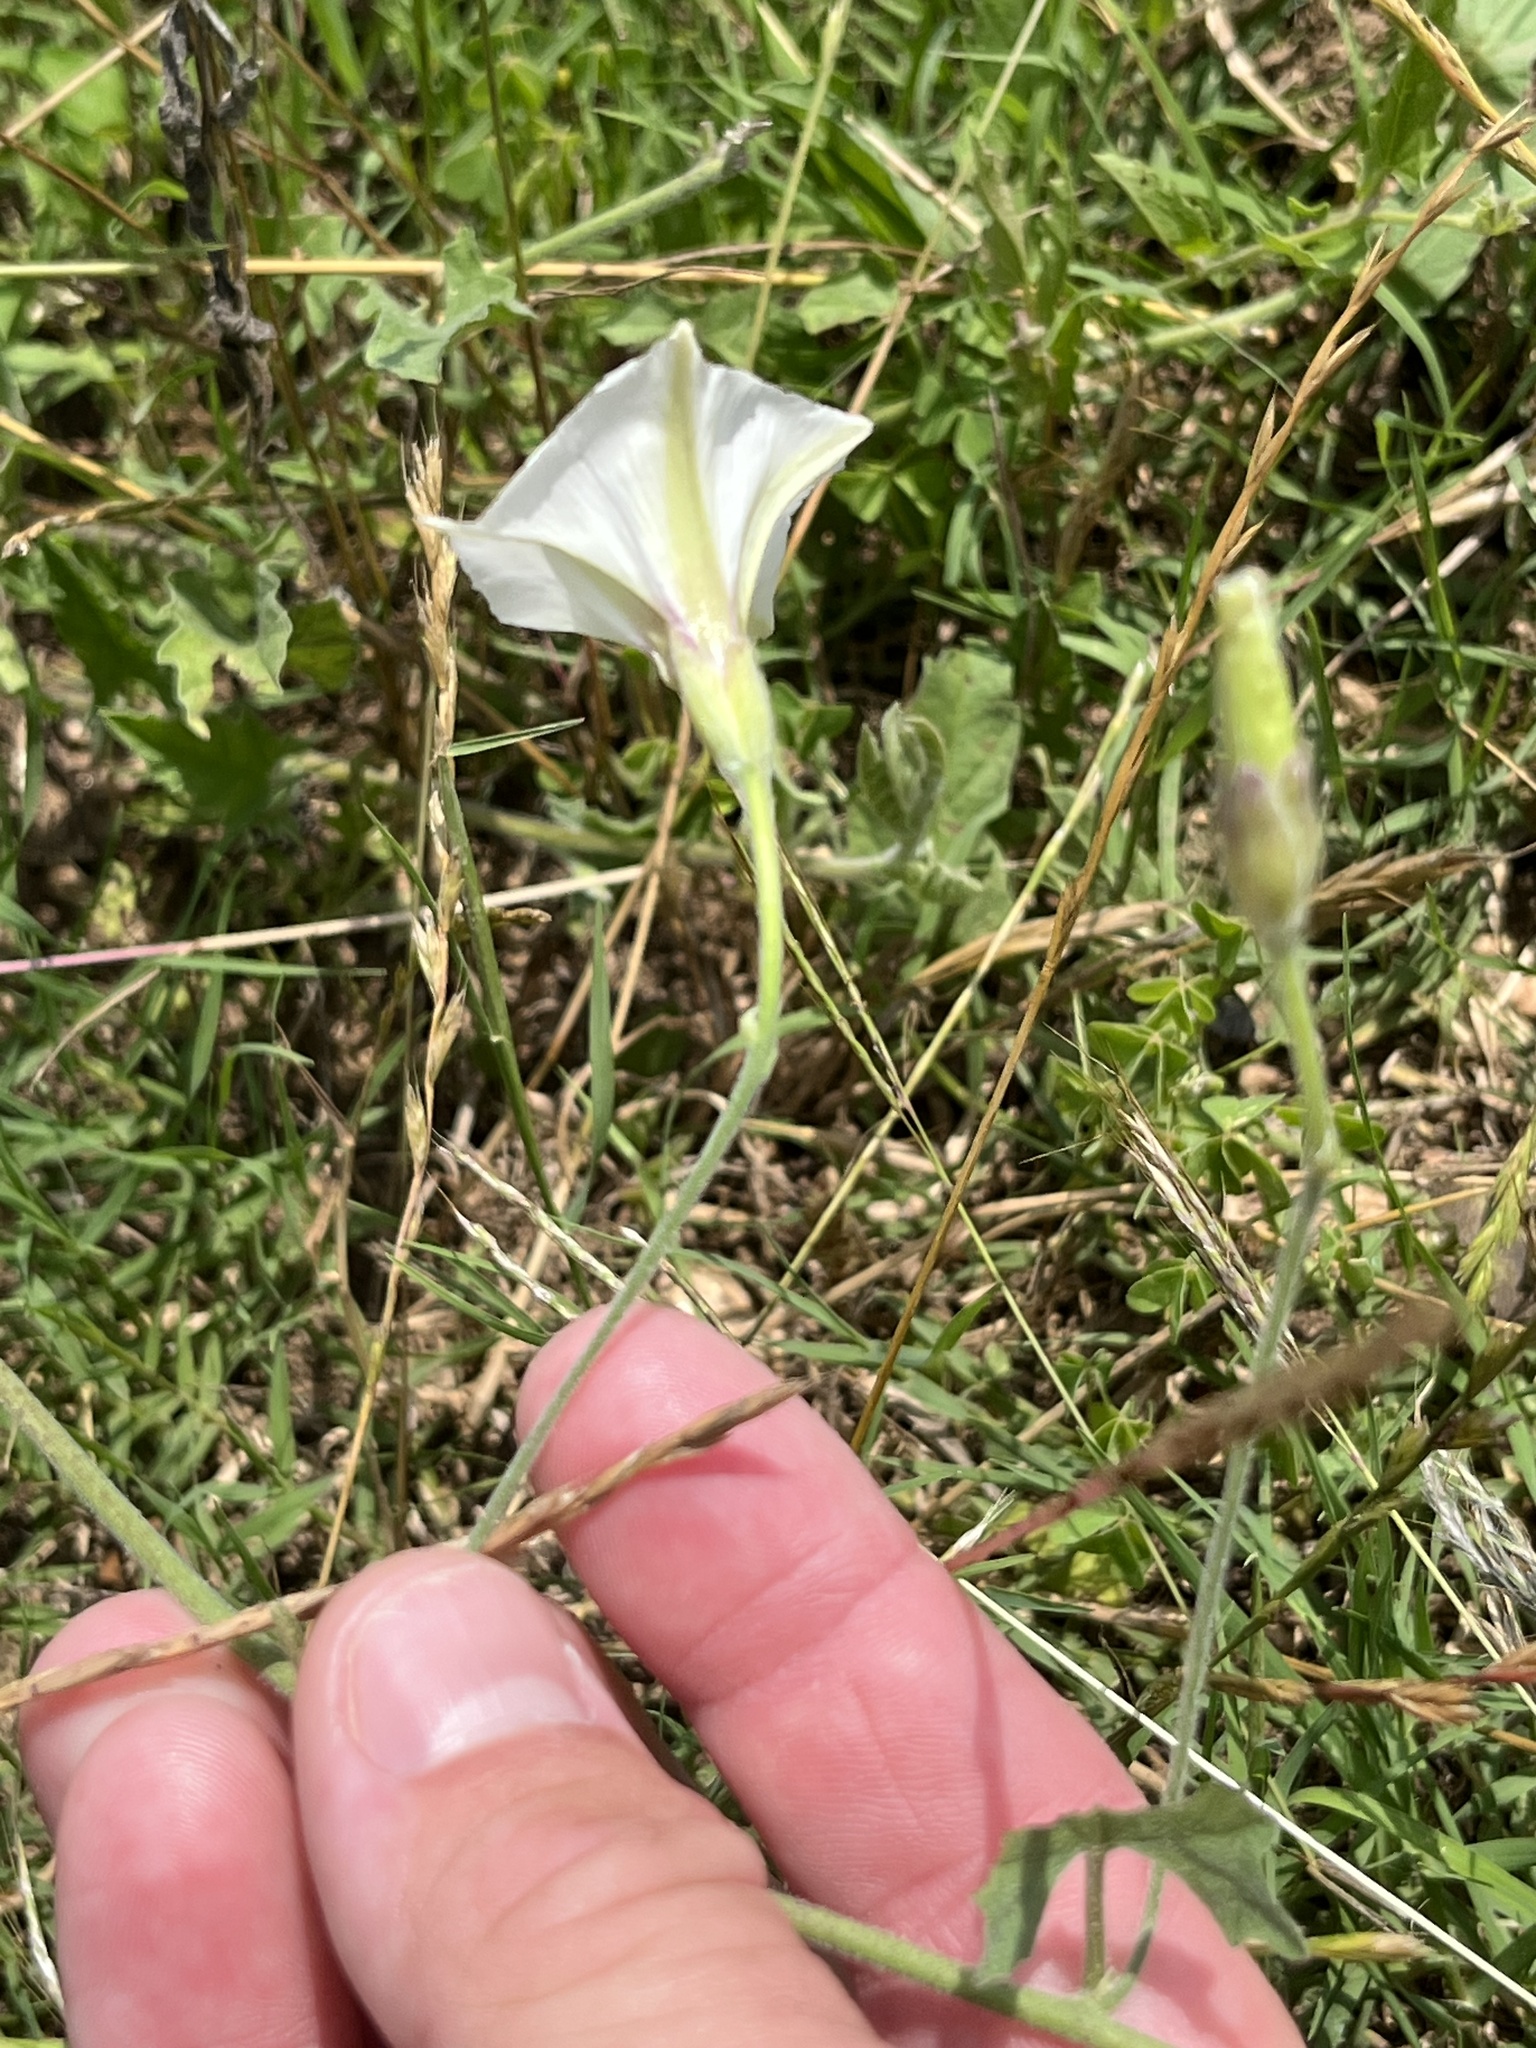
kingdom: Plantae
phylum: Tracheophyta
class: Magnoliopsida
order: Solanales
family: Convolvulaceae
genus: Convolvulus
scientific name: Convolvulus equitans
